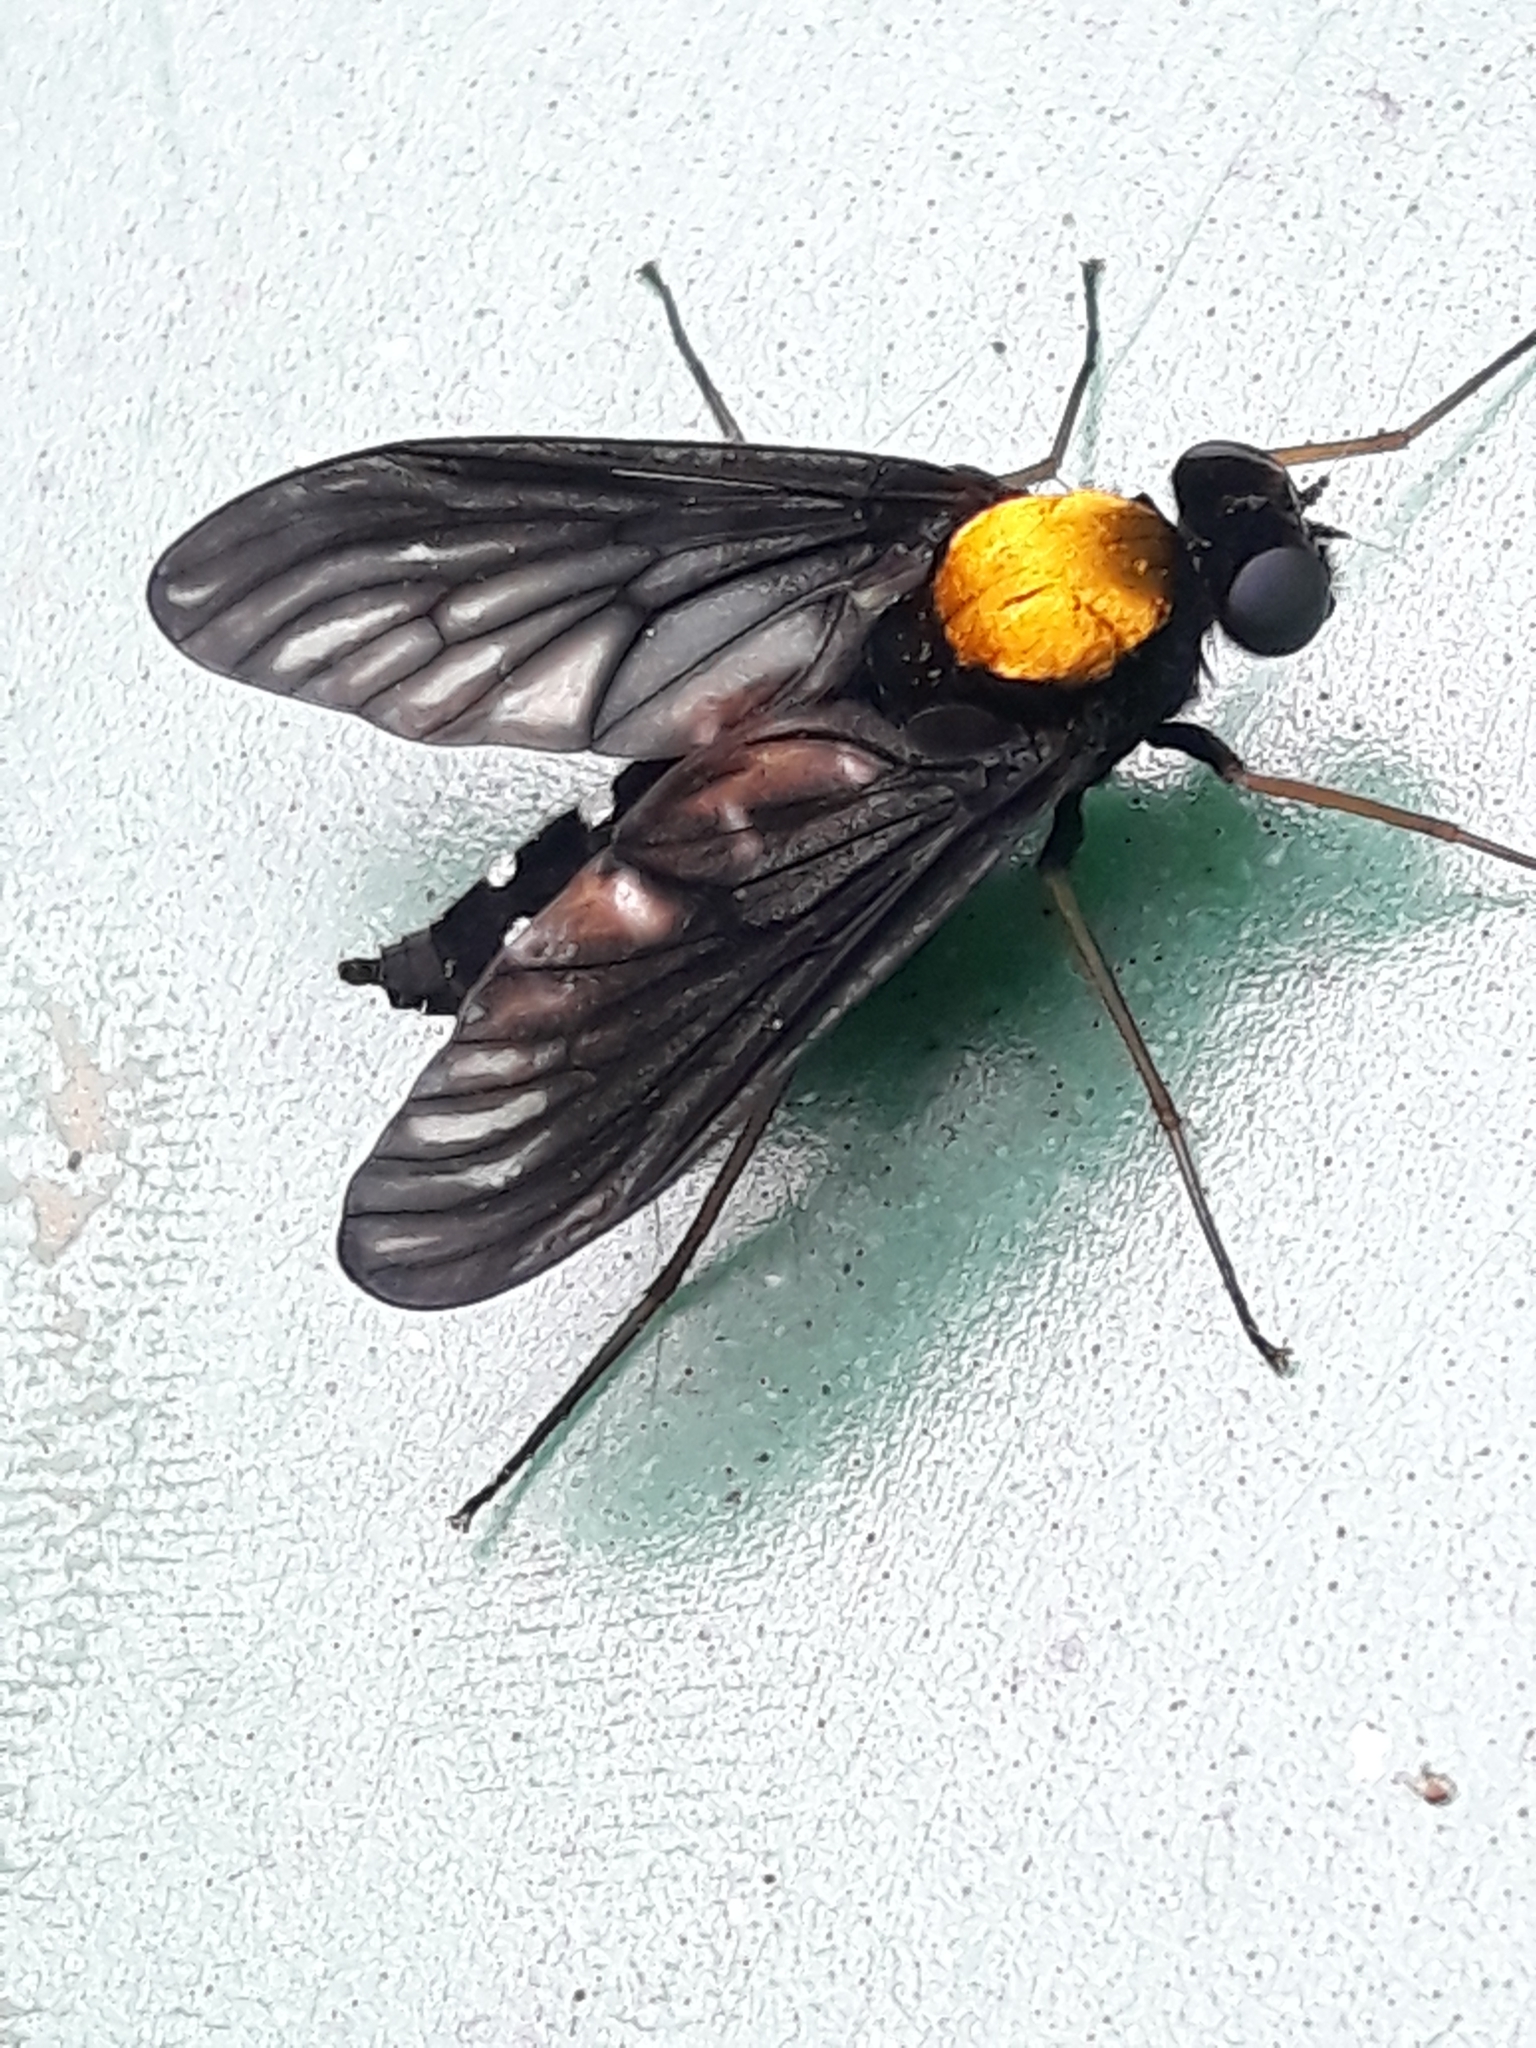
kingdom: Animalia
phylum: Arthropoda
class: Insecta
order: Diptera
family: Rhagionidae
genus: Chrysopilus
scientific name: Chrysopilus thoracicus
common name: Golden-backed snipe fly
